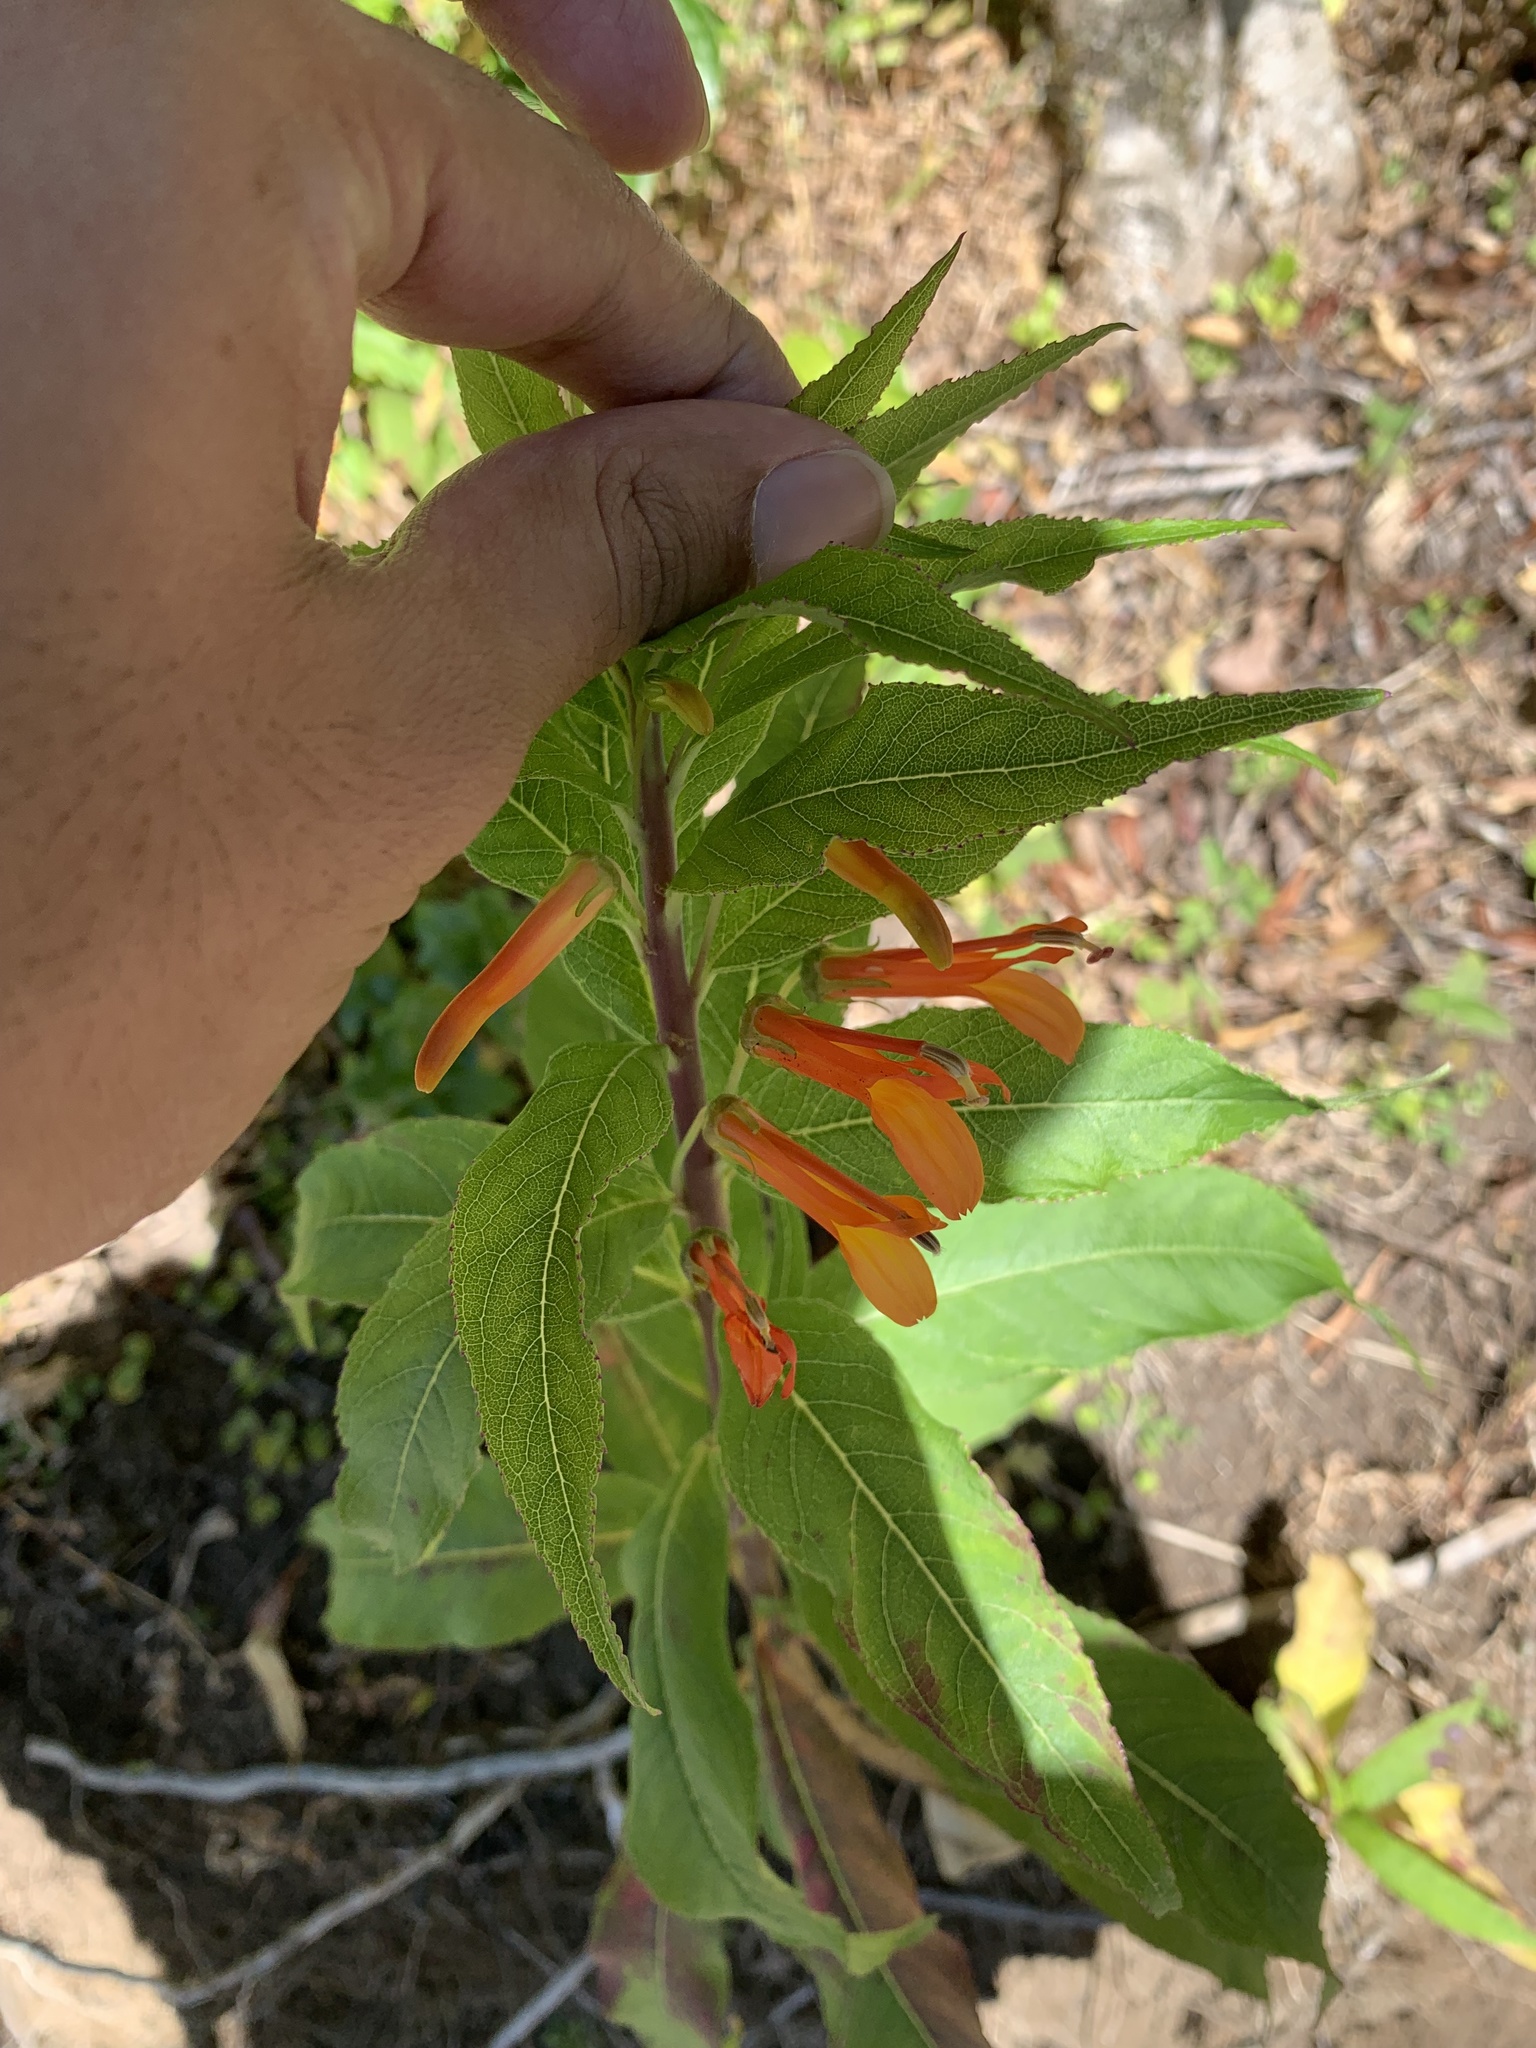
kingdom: Plantae
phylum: Tracheophyta
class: Magnoliopsida
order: Asterales
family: Campanulaceae
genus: Lobelia
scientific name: Lobelia laxiflora
